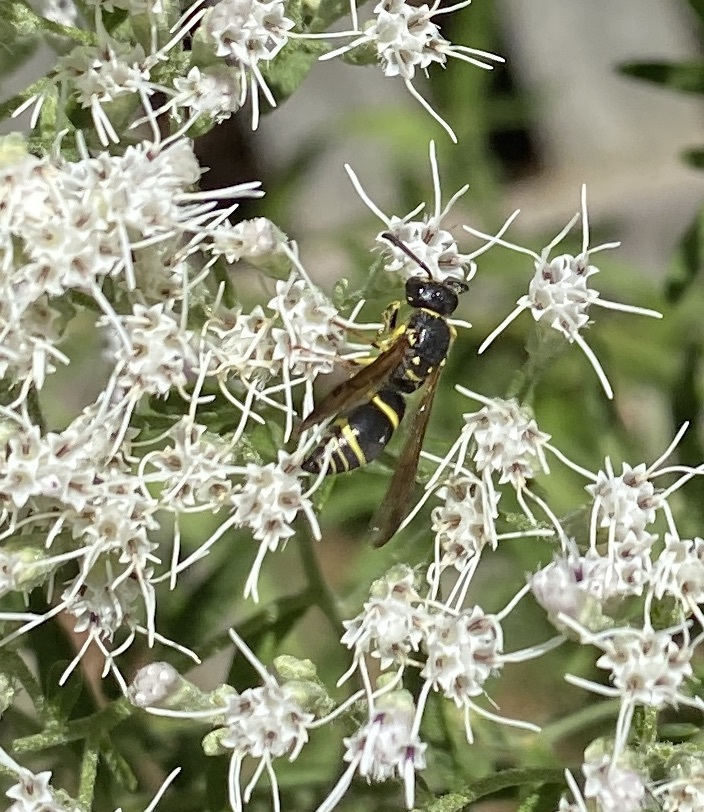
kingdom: Animalia
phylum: Arthropoda
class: Insecta
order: Hymenoptera
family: Vespidae
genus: Ancistrocerus
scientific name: Ancistrocerus
